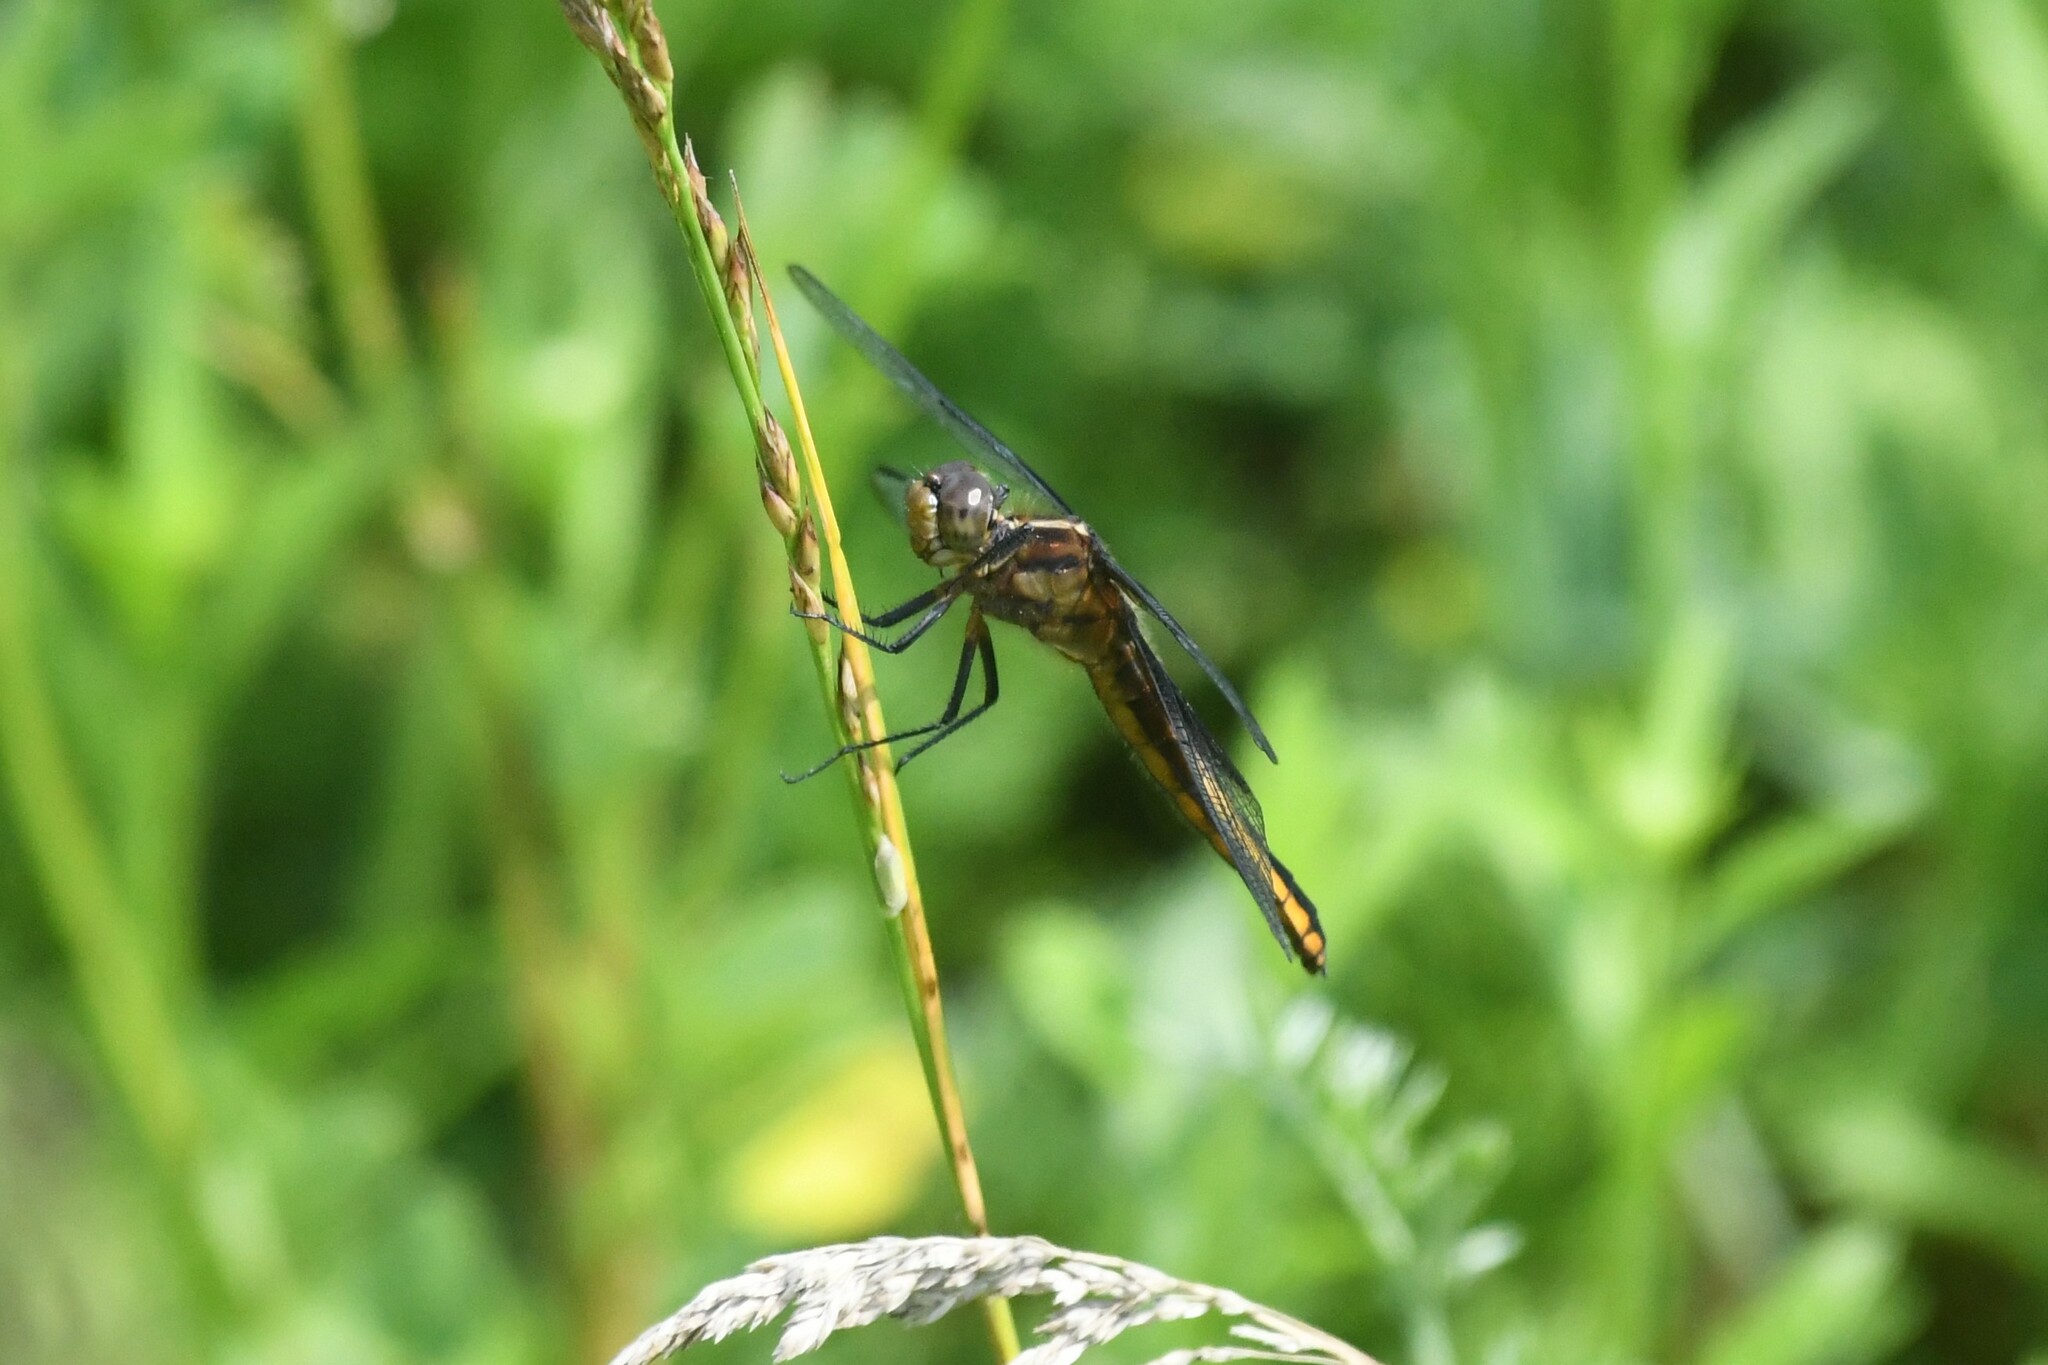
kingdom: Animalia
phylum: Arthropoda
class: Insecta
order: Odonata
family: Libellulidae
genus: Libellula
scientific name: Libellula luctuosa
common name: Widow skimmer
